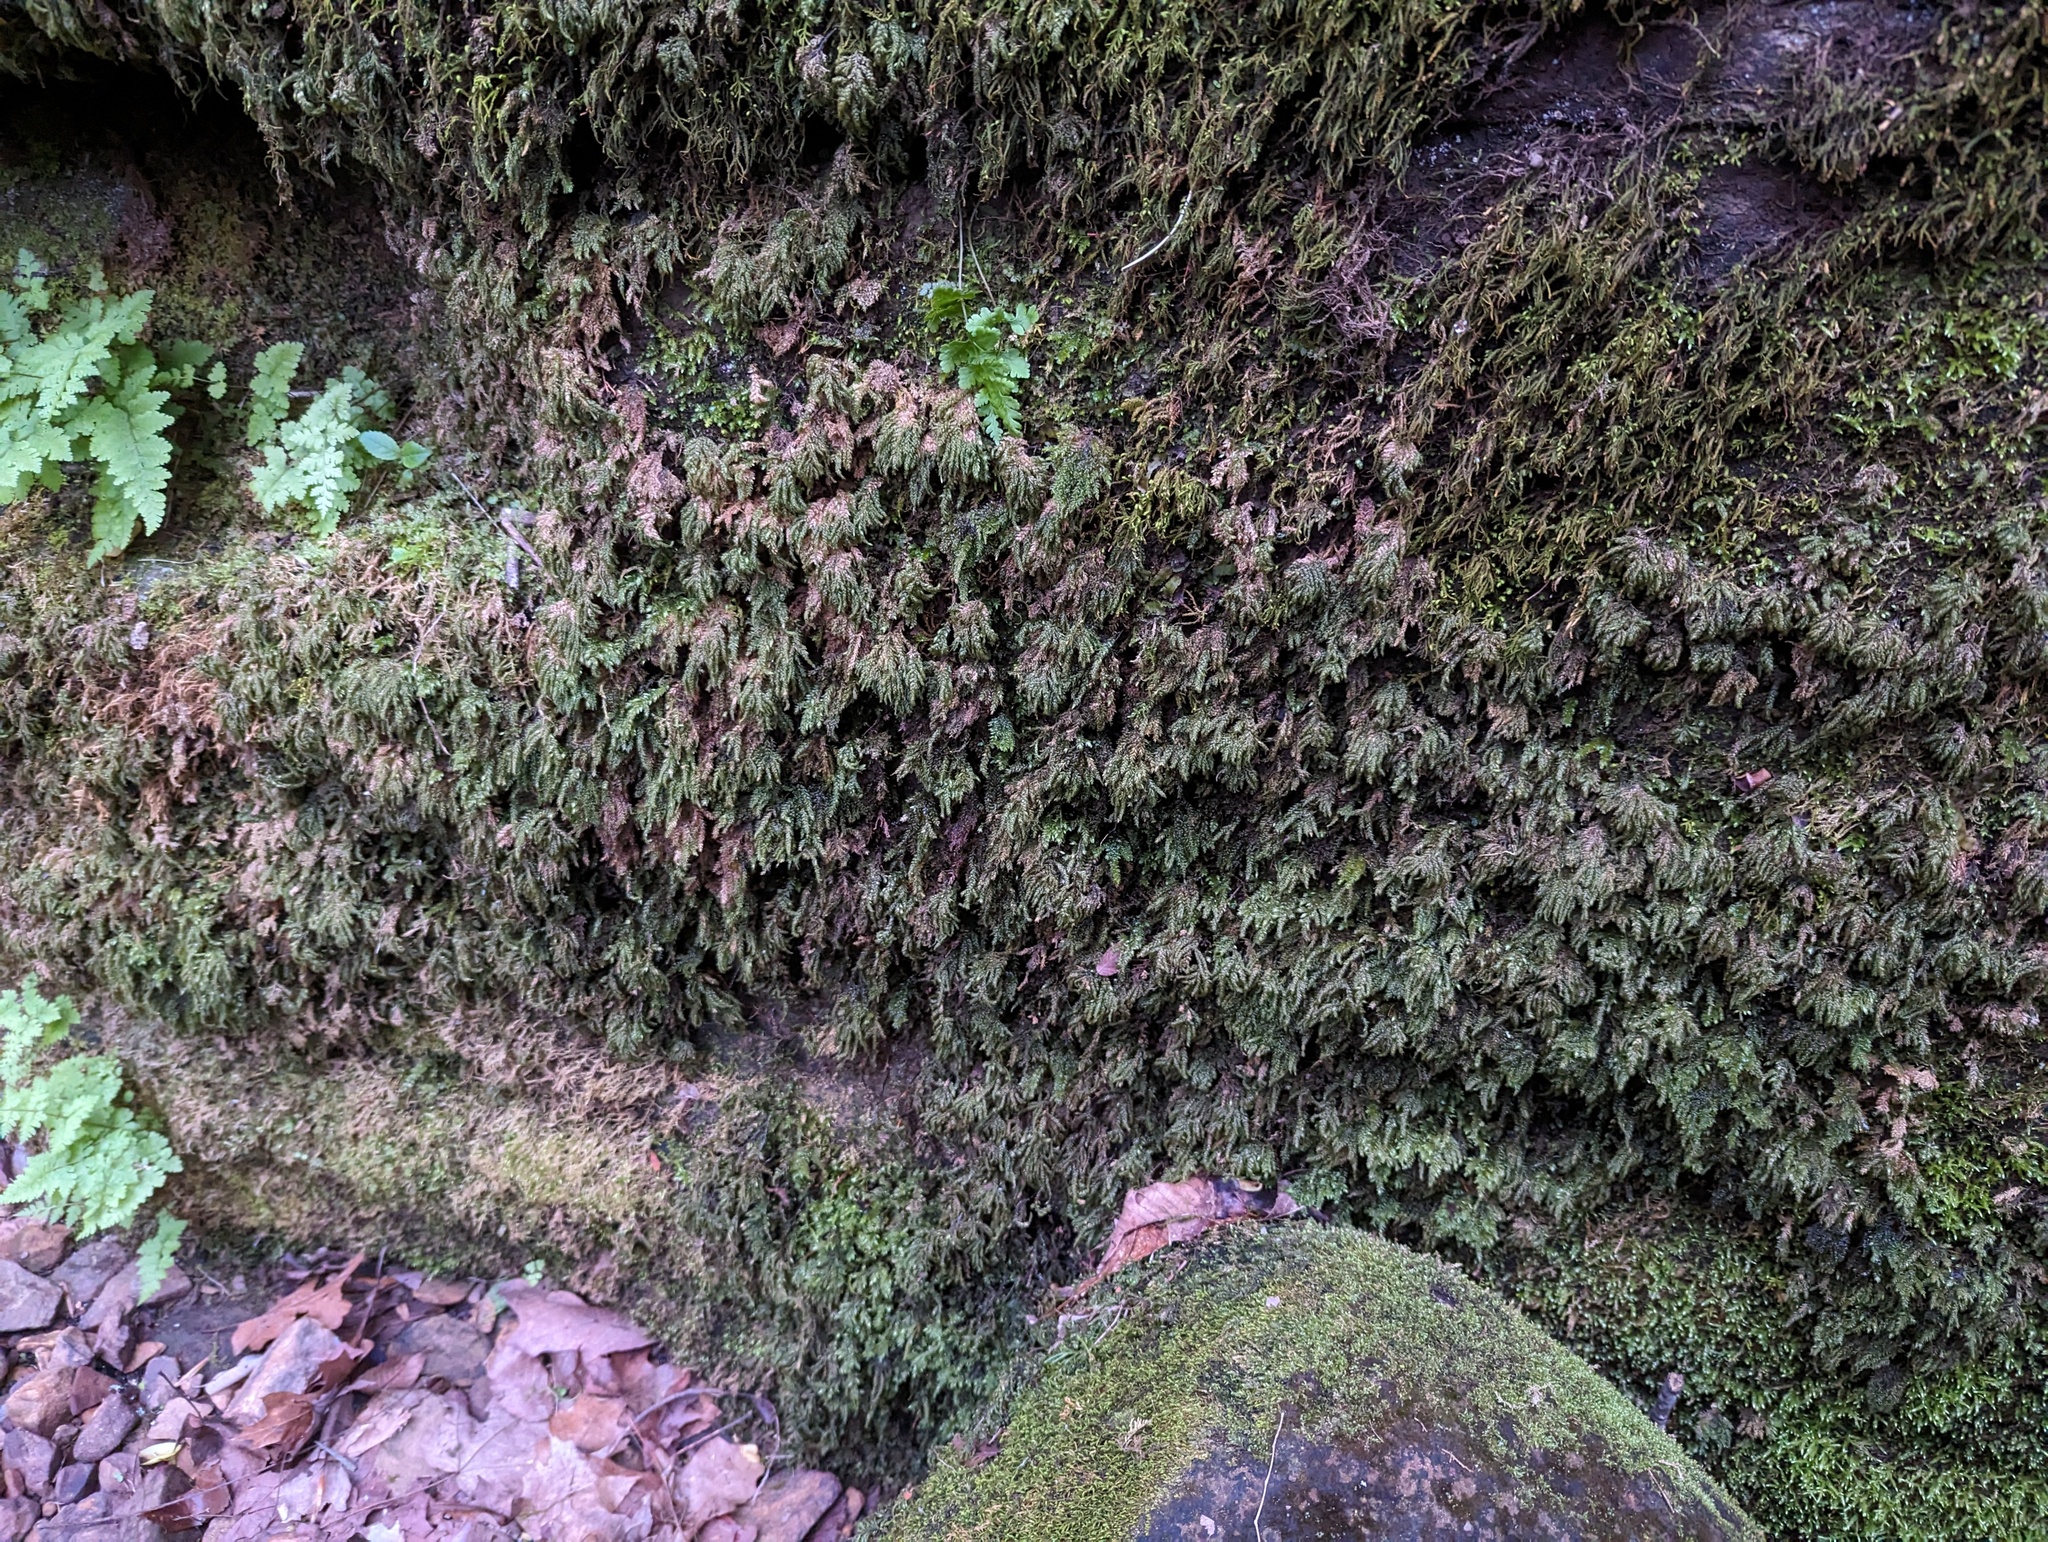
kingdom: Plantae
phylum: Bryophyta
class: Bryopsida
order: Hypnales
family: Neckeraceae
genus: Thamnobryum
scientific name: Thamnobryum subserratum
